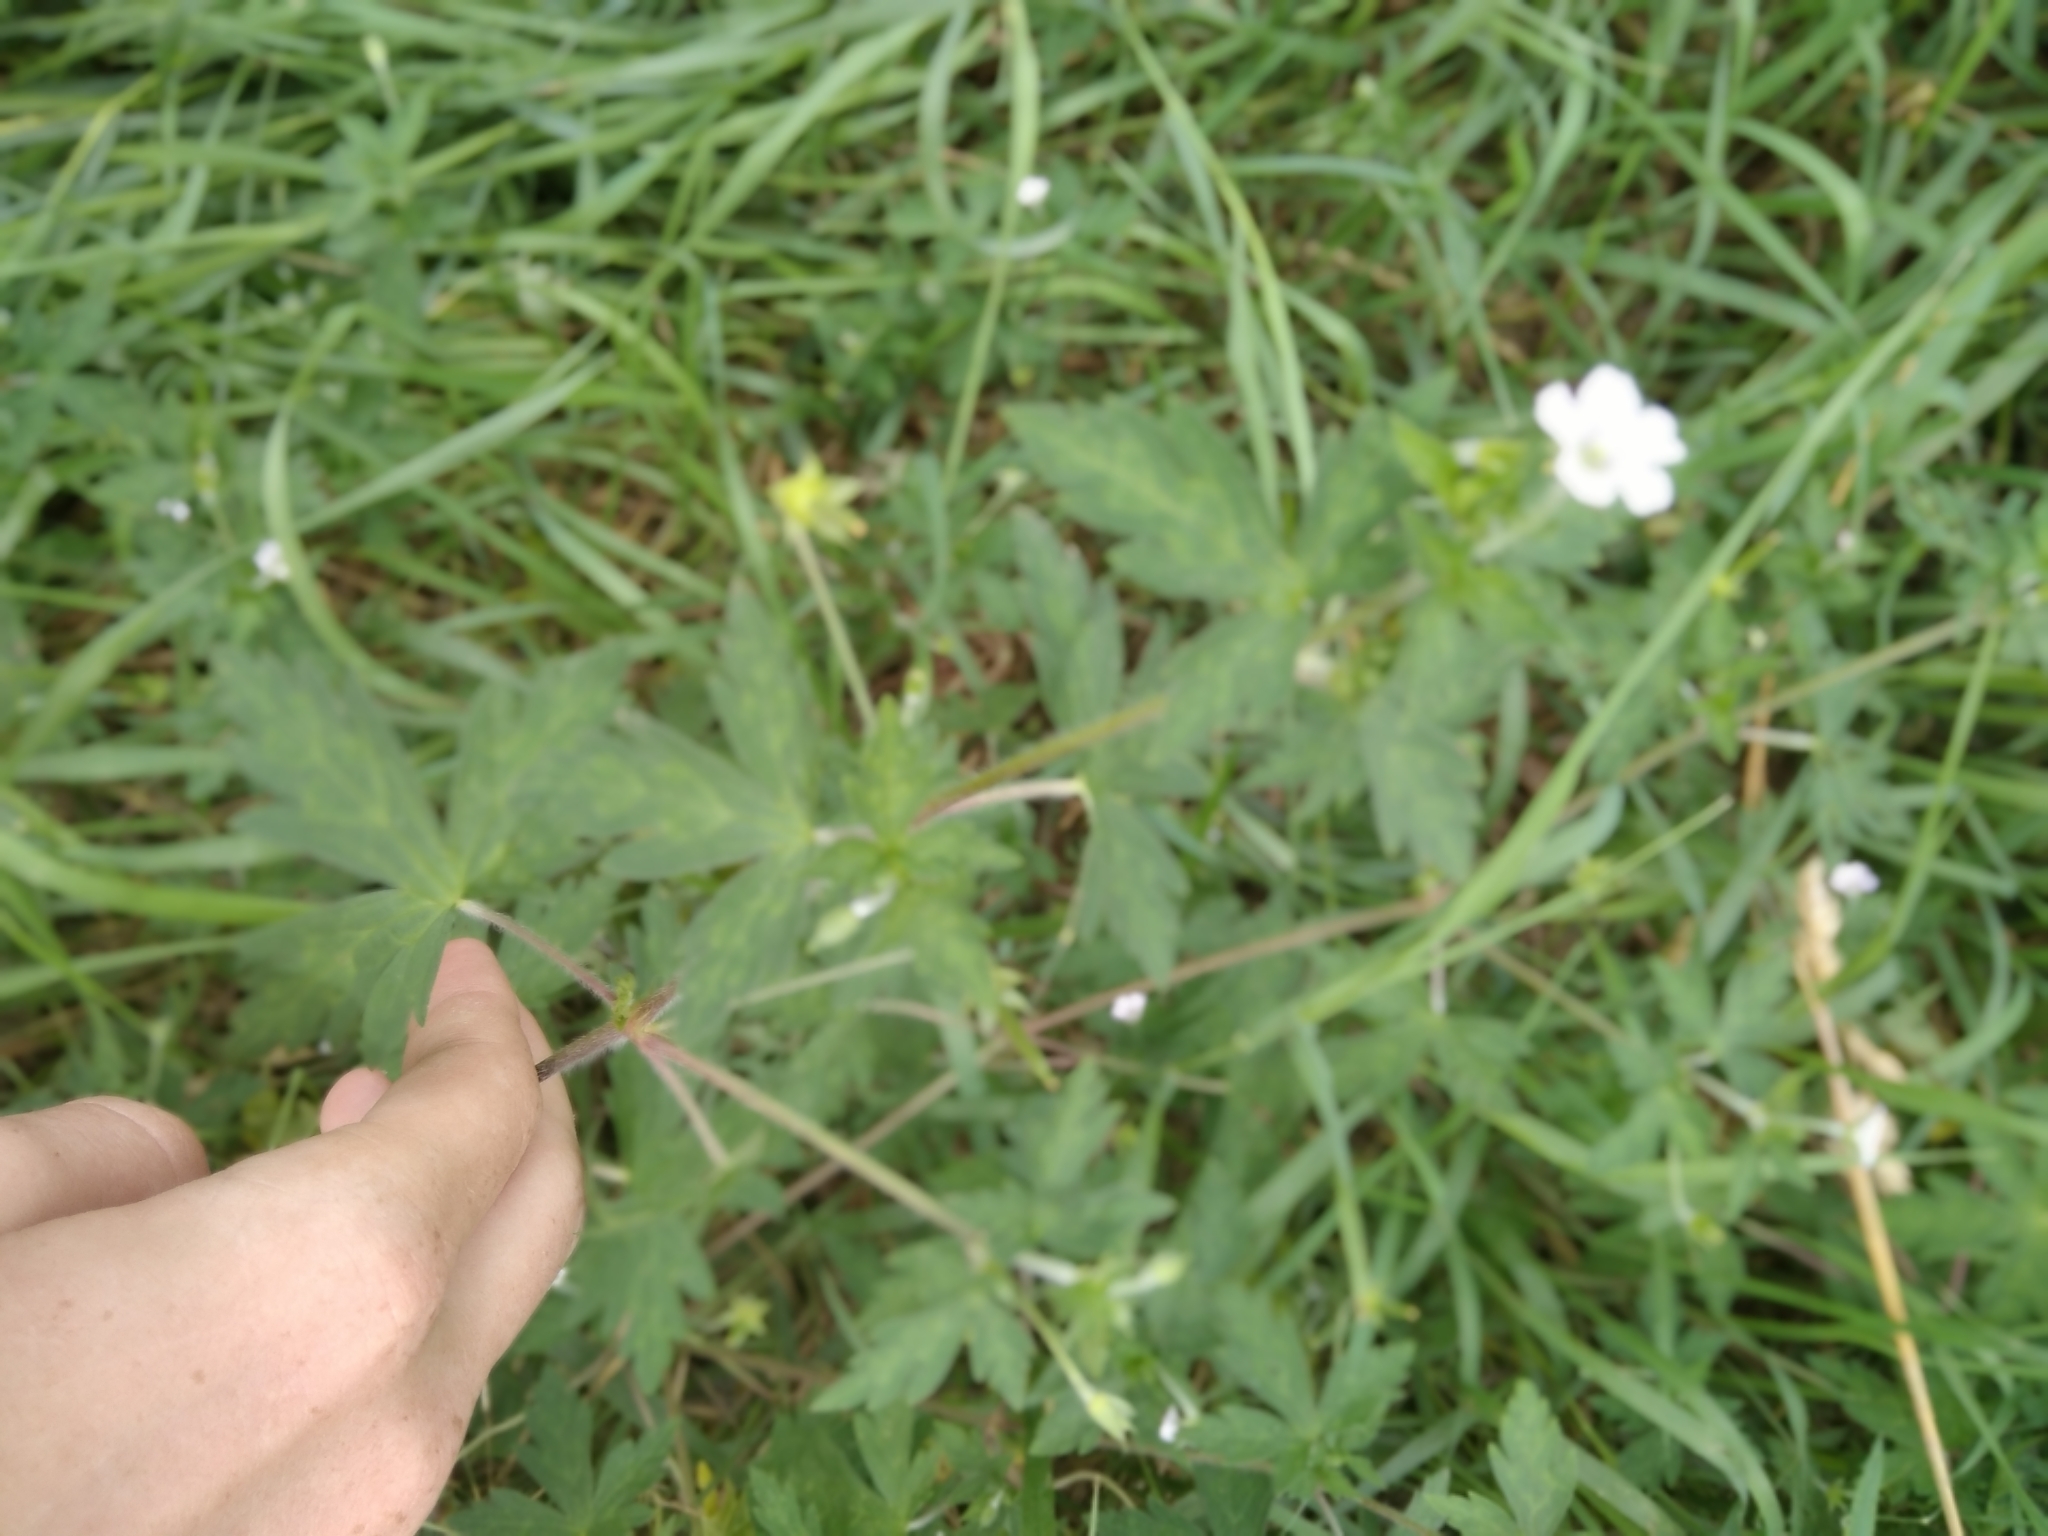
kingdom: Plantae
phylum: Tracheophyta
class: Magnoliopsida
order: Geraniales
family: Geraniaceae
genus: Geranium
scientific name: Geranium sibiricum
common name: Siberian crane's-bill
